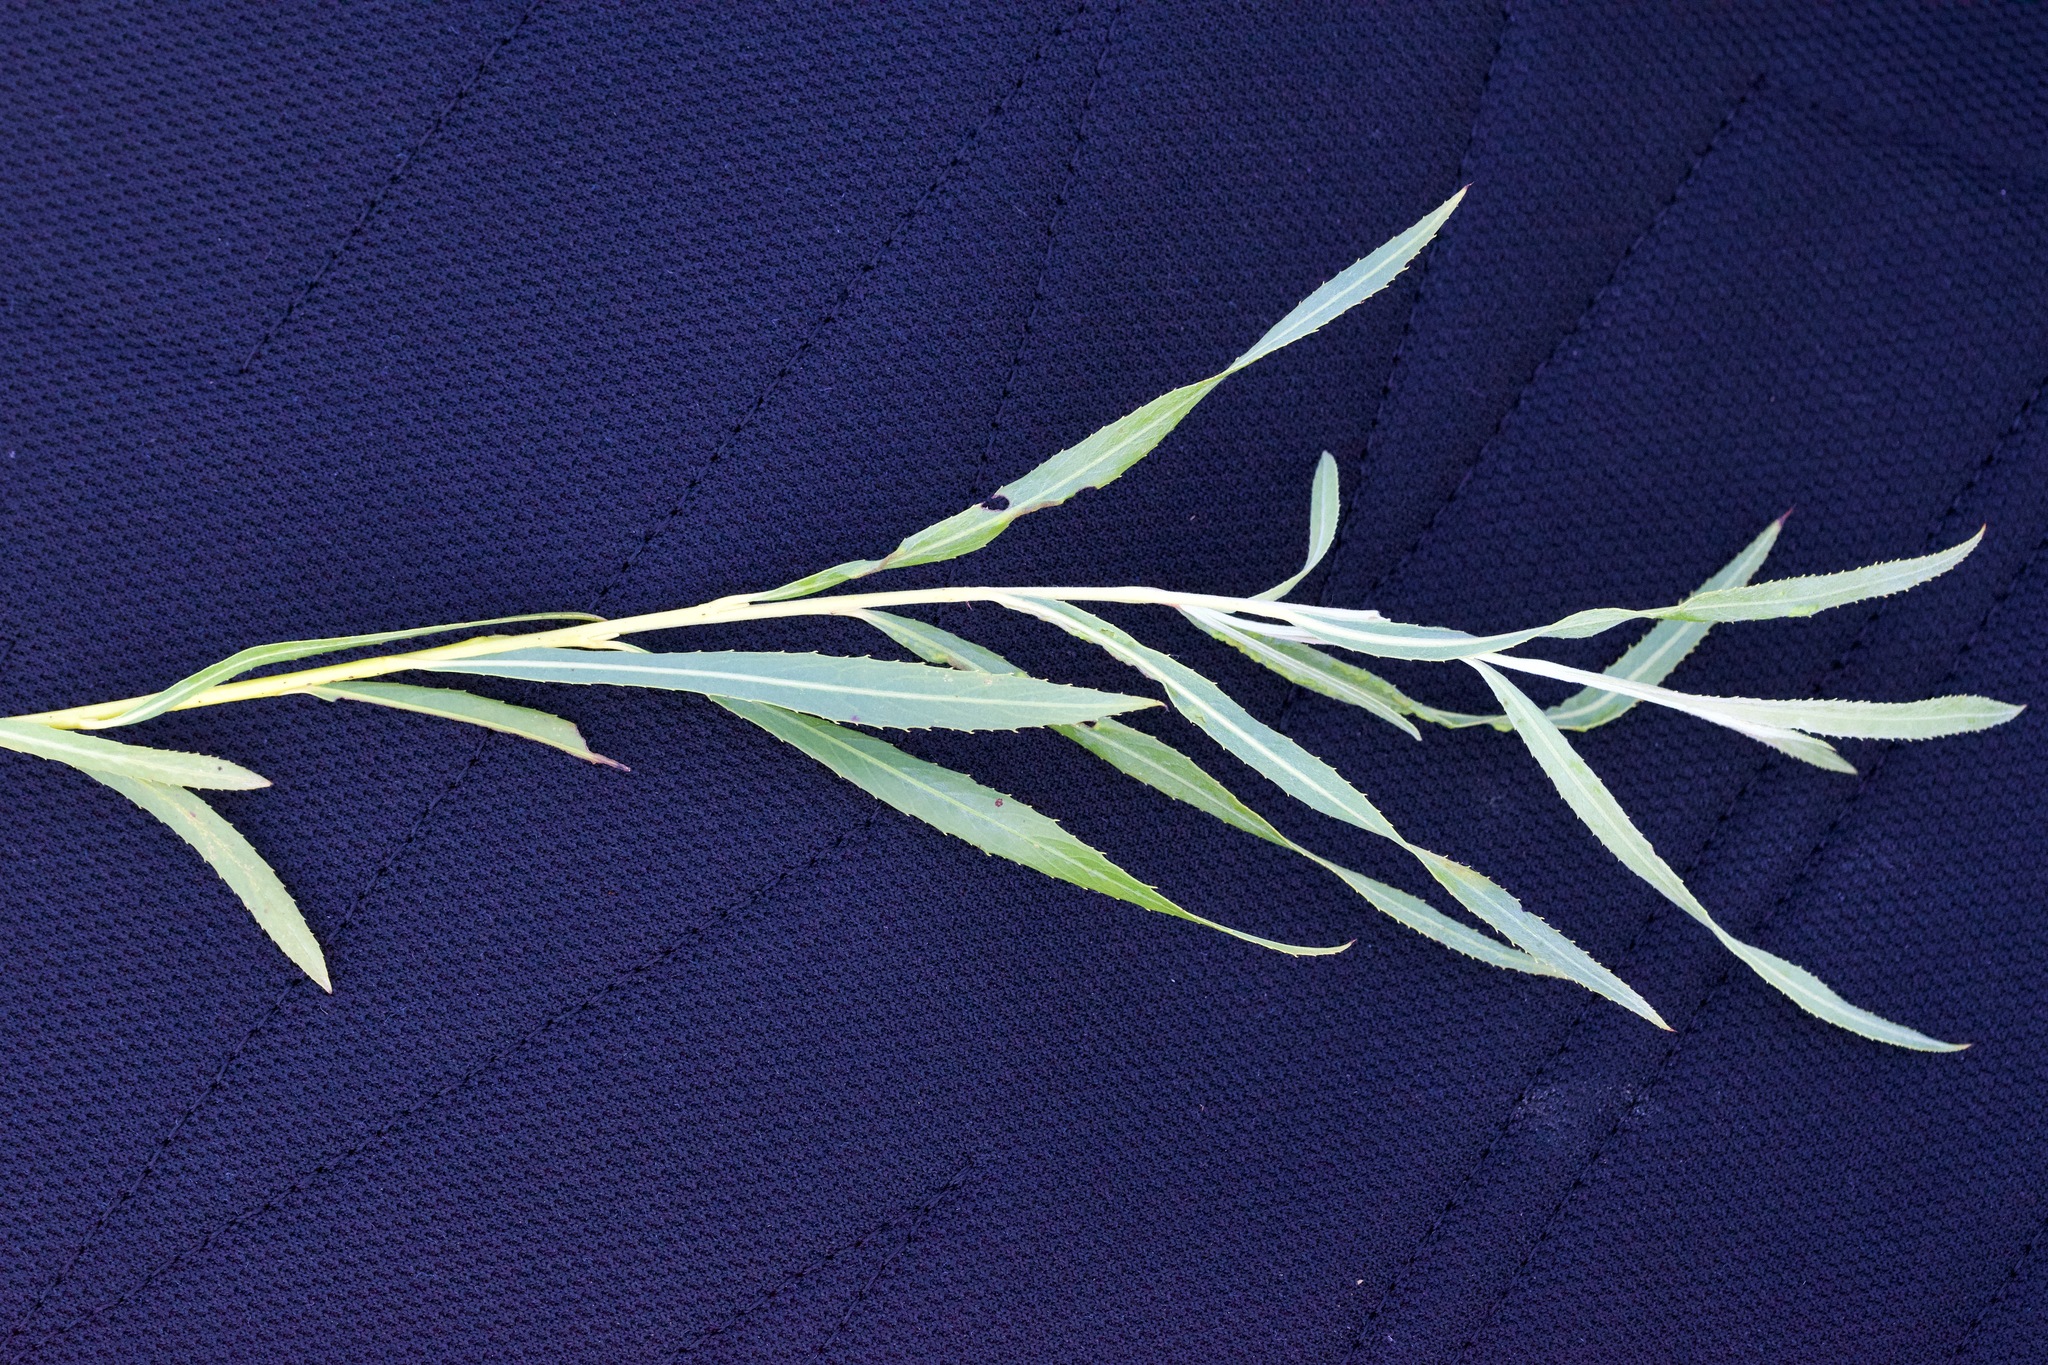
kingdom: Plantae
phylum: Tracheophyta
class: Magnoliopsida
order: Malpighiales
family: Salicaceae
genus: Salix
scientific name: Salix interior
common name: Sandbar willow
